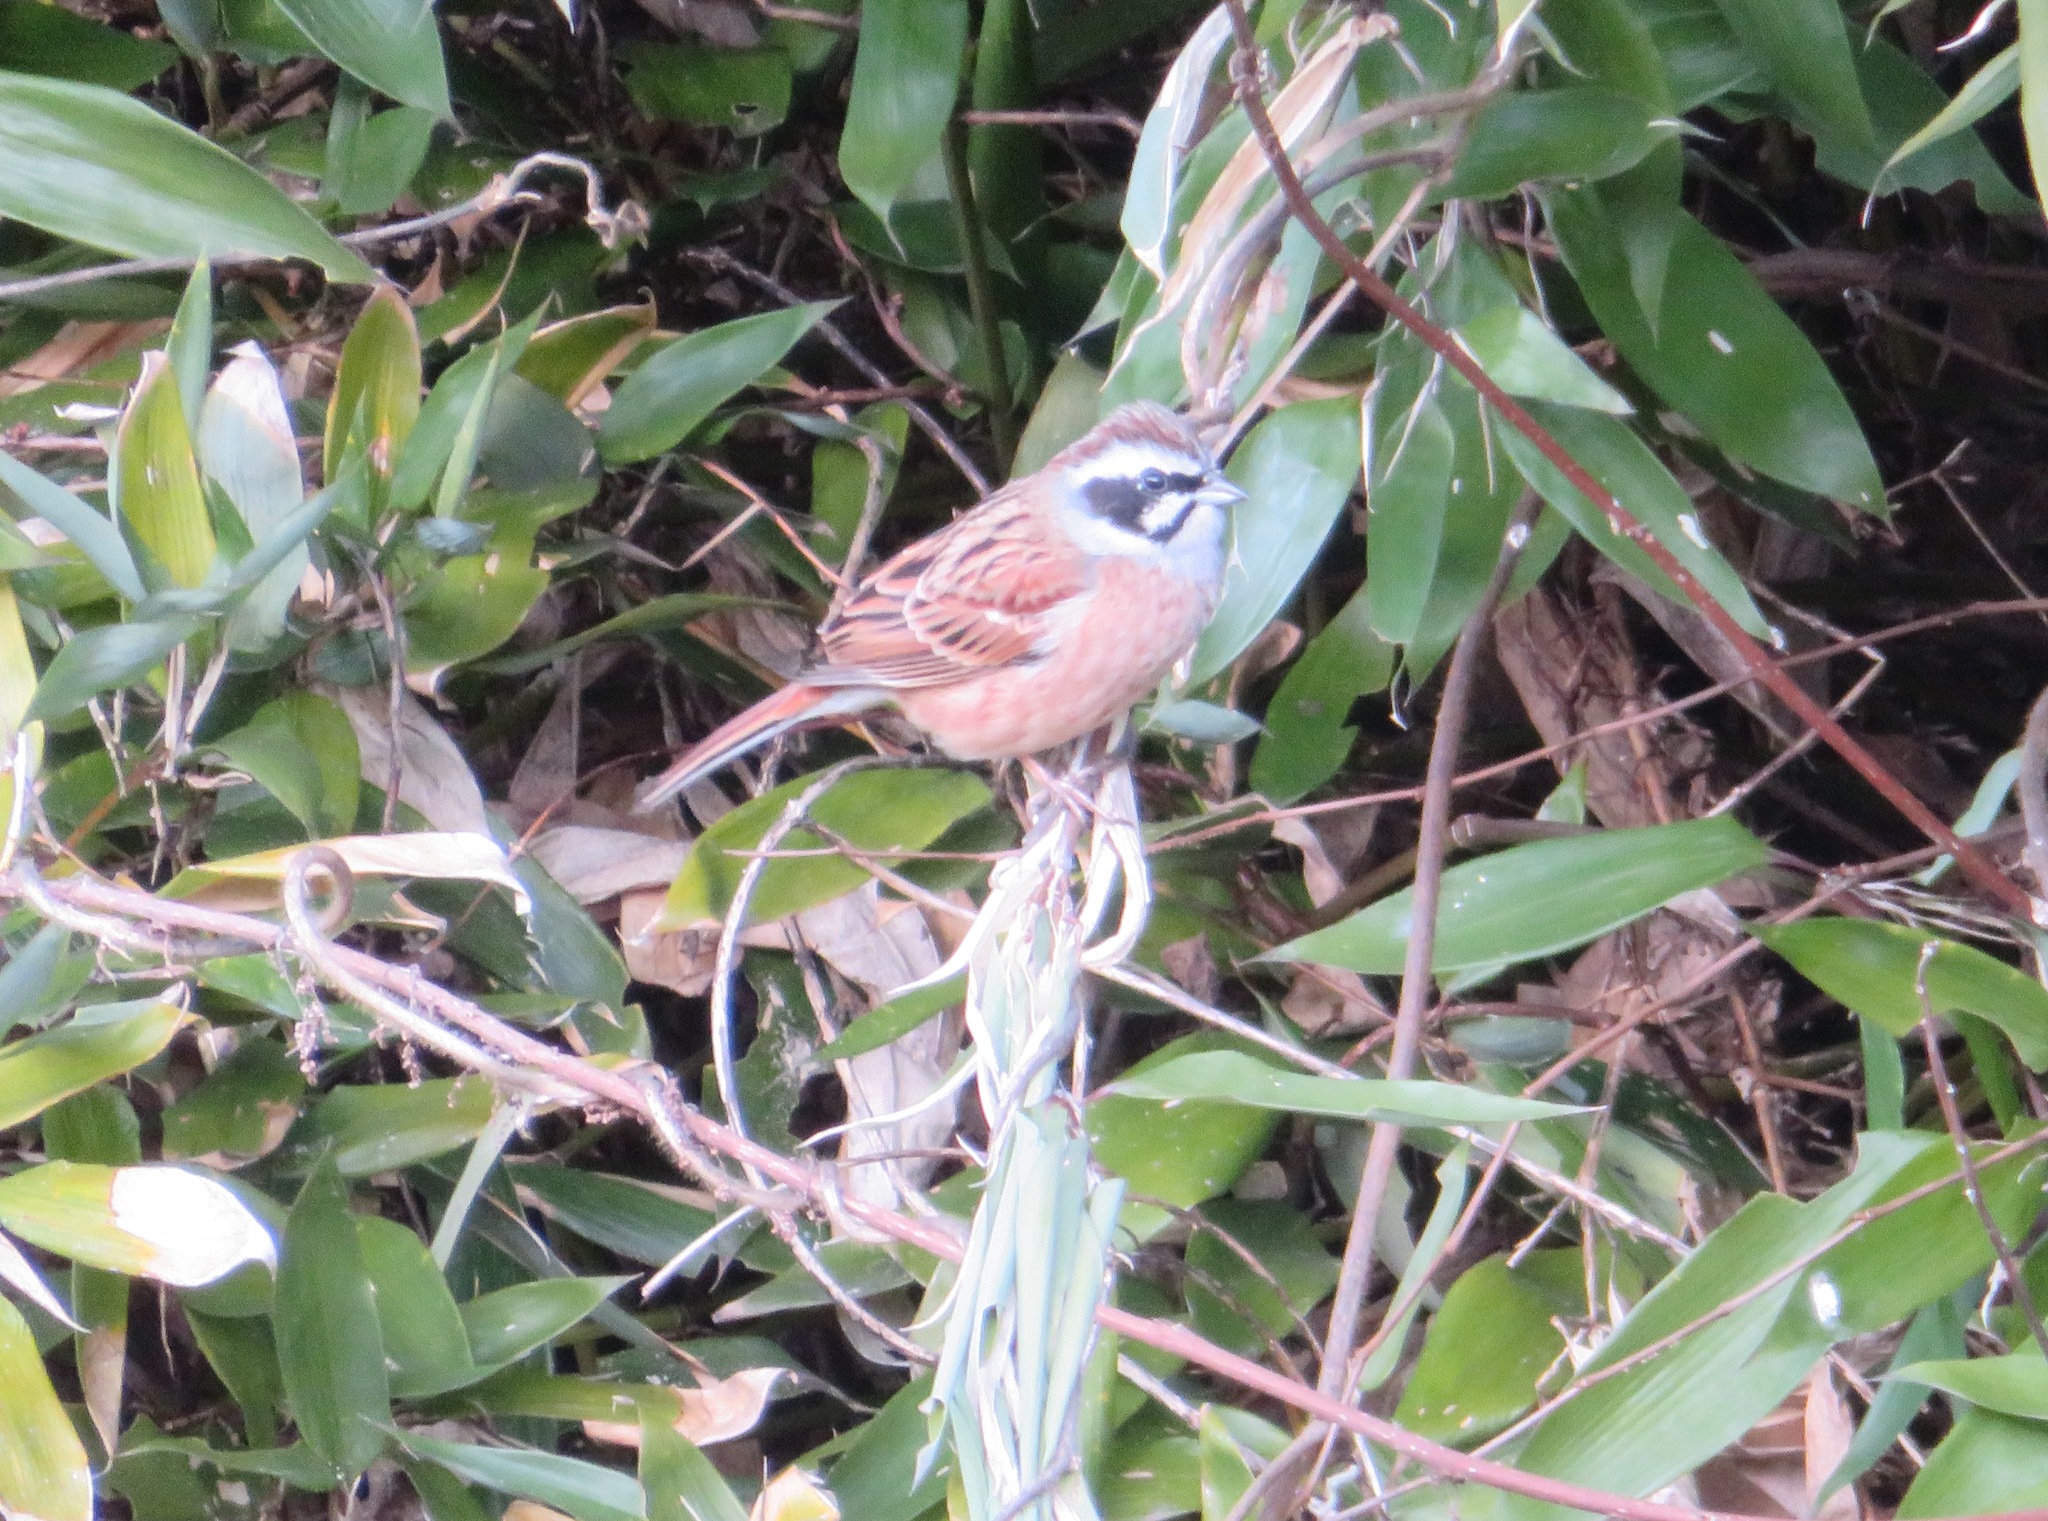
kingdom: Animalia
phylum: Chordata
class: Aves
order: Passeriformes
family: Emberizidae
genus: Emberiza
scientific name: Emberiza cioides
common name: Meadow bunting
